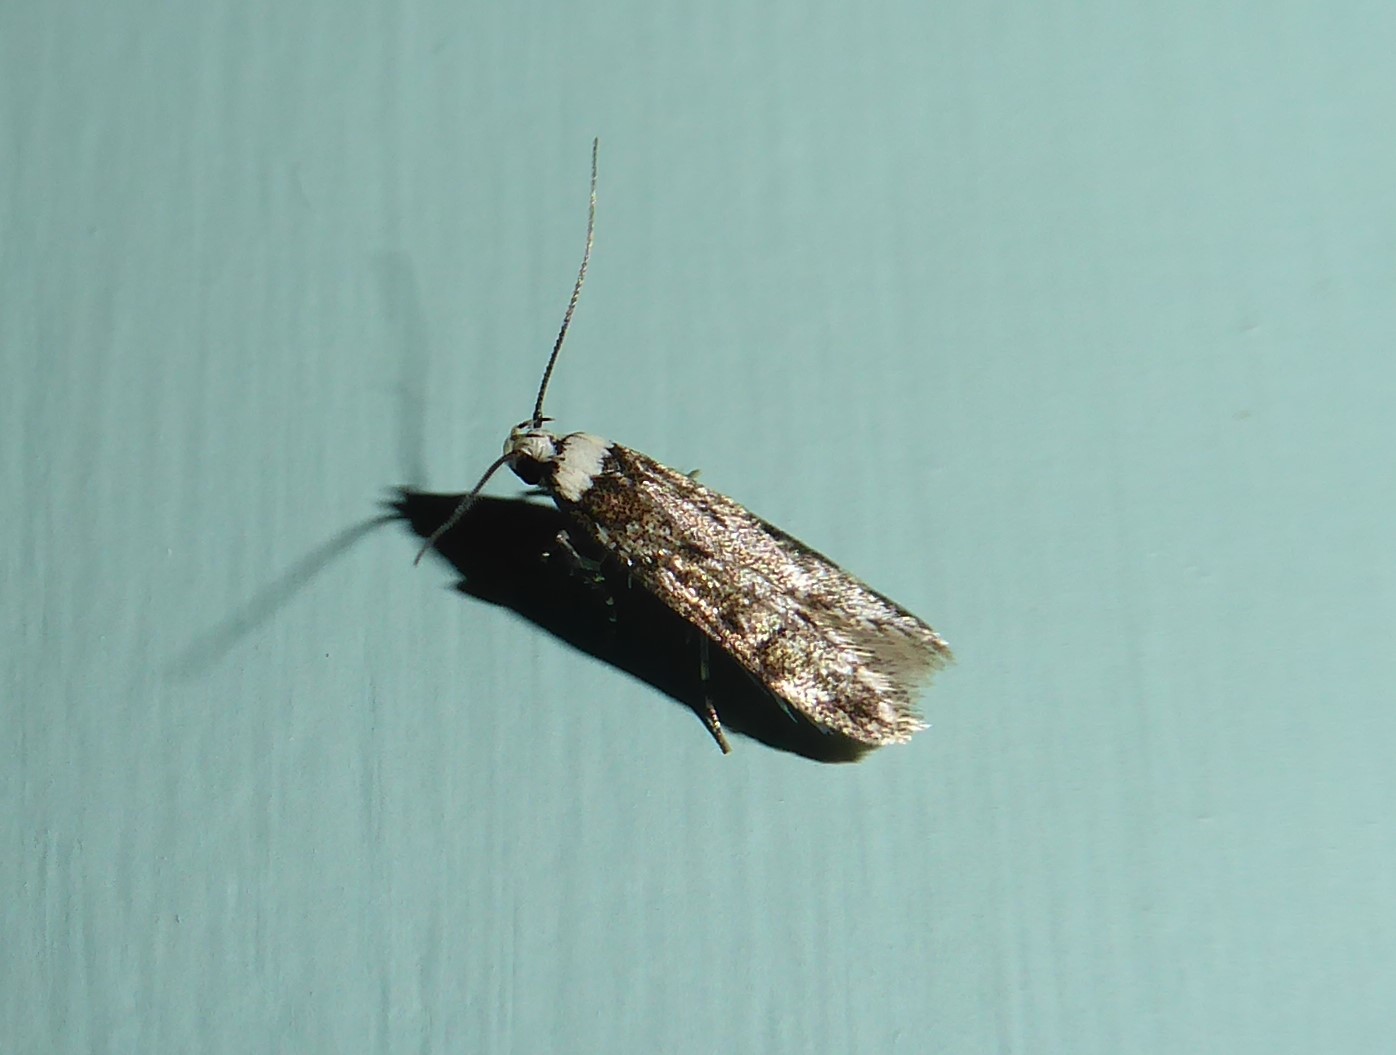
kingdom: Animalia
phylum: Arthropoda
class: Insecta
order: Lepidoptera
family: Oecophoridae
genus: Endrosis
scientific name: Endrosis sarcitrella
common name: White-shouldered house moth
